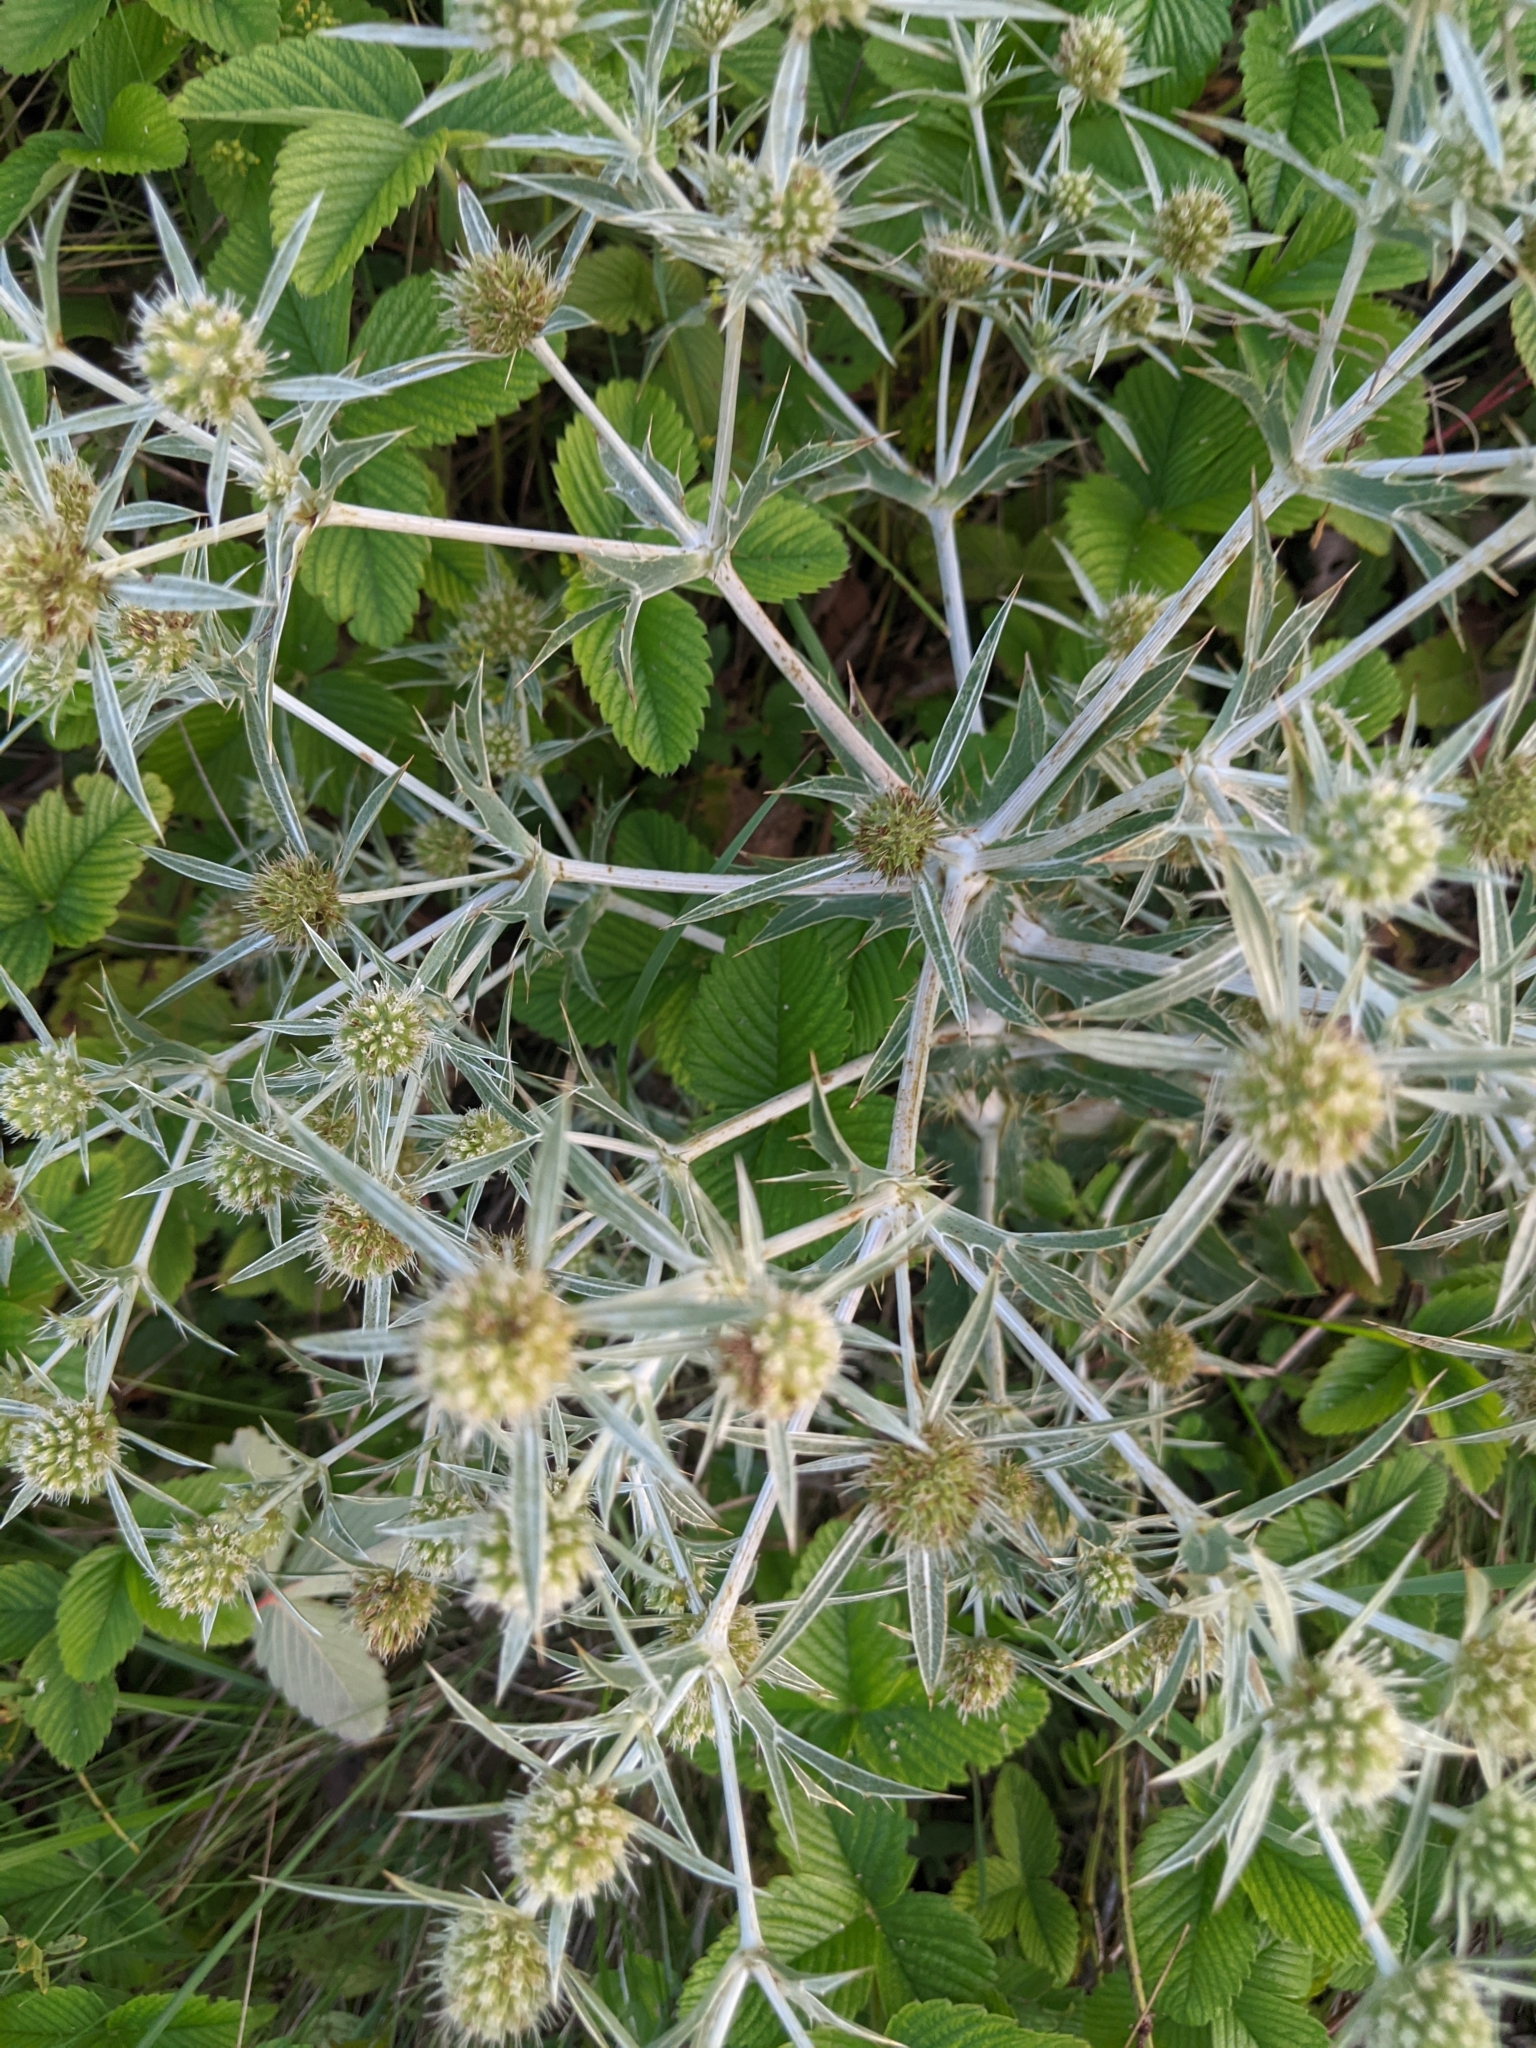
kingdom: Plantae
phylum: Tracheophyta
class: Magnoliopsida
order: Apiales
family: Apiaceae
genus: Eryngium
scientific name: Eryngium campestre
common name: Field eryngo
